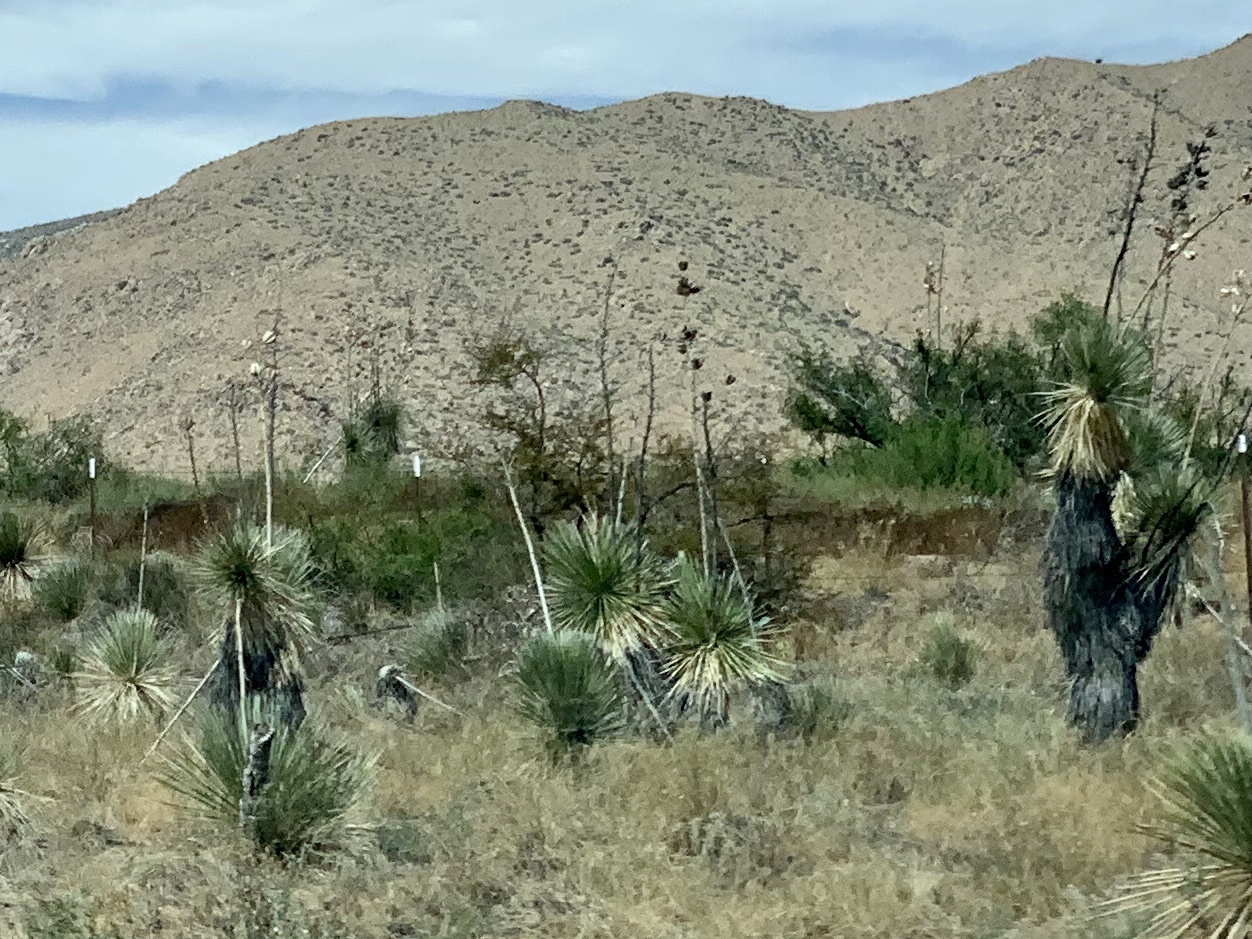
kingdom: Plantae
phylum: Tracheophyta
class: Liliopsida
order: Asparagales
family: Asparagaceae
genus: Yucca
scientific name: Yucca elata
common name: Palmella
